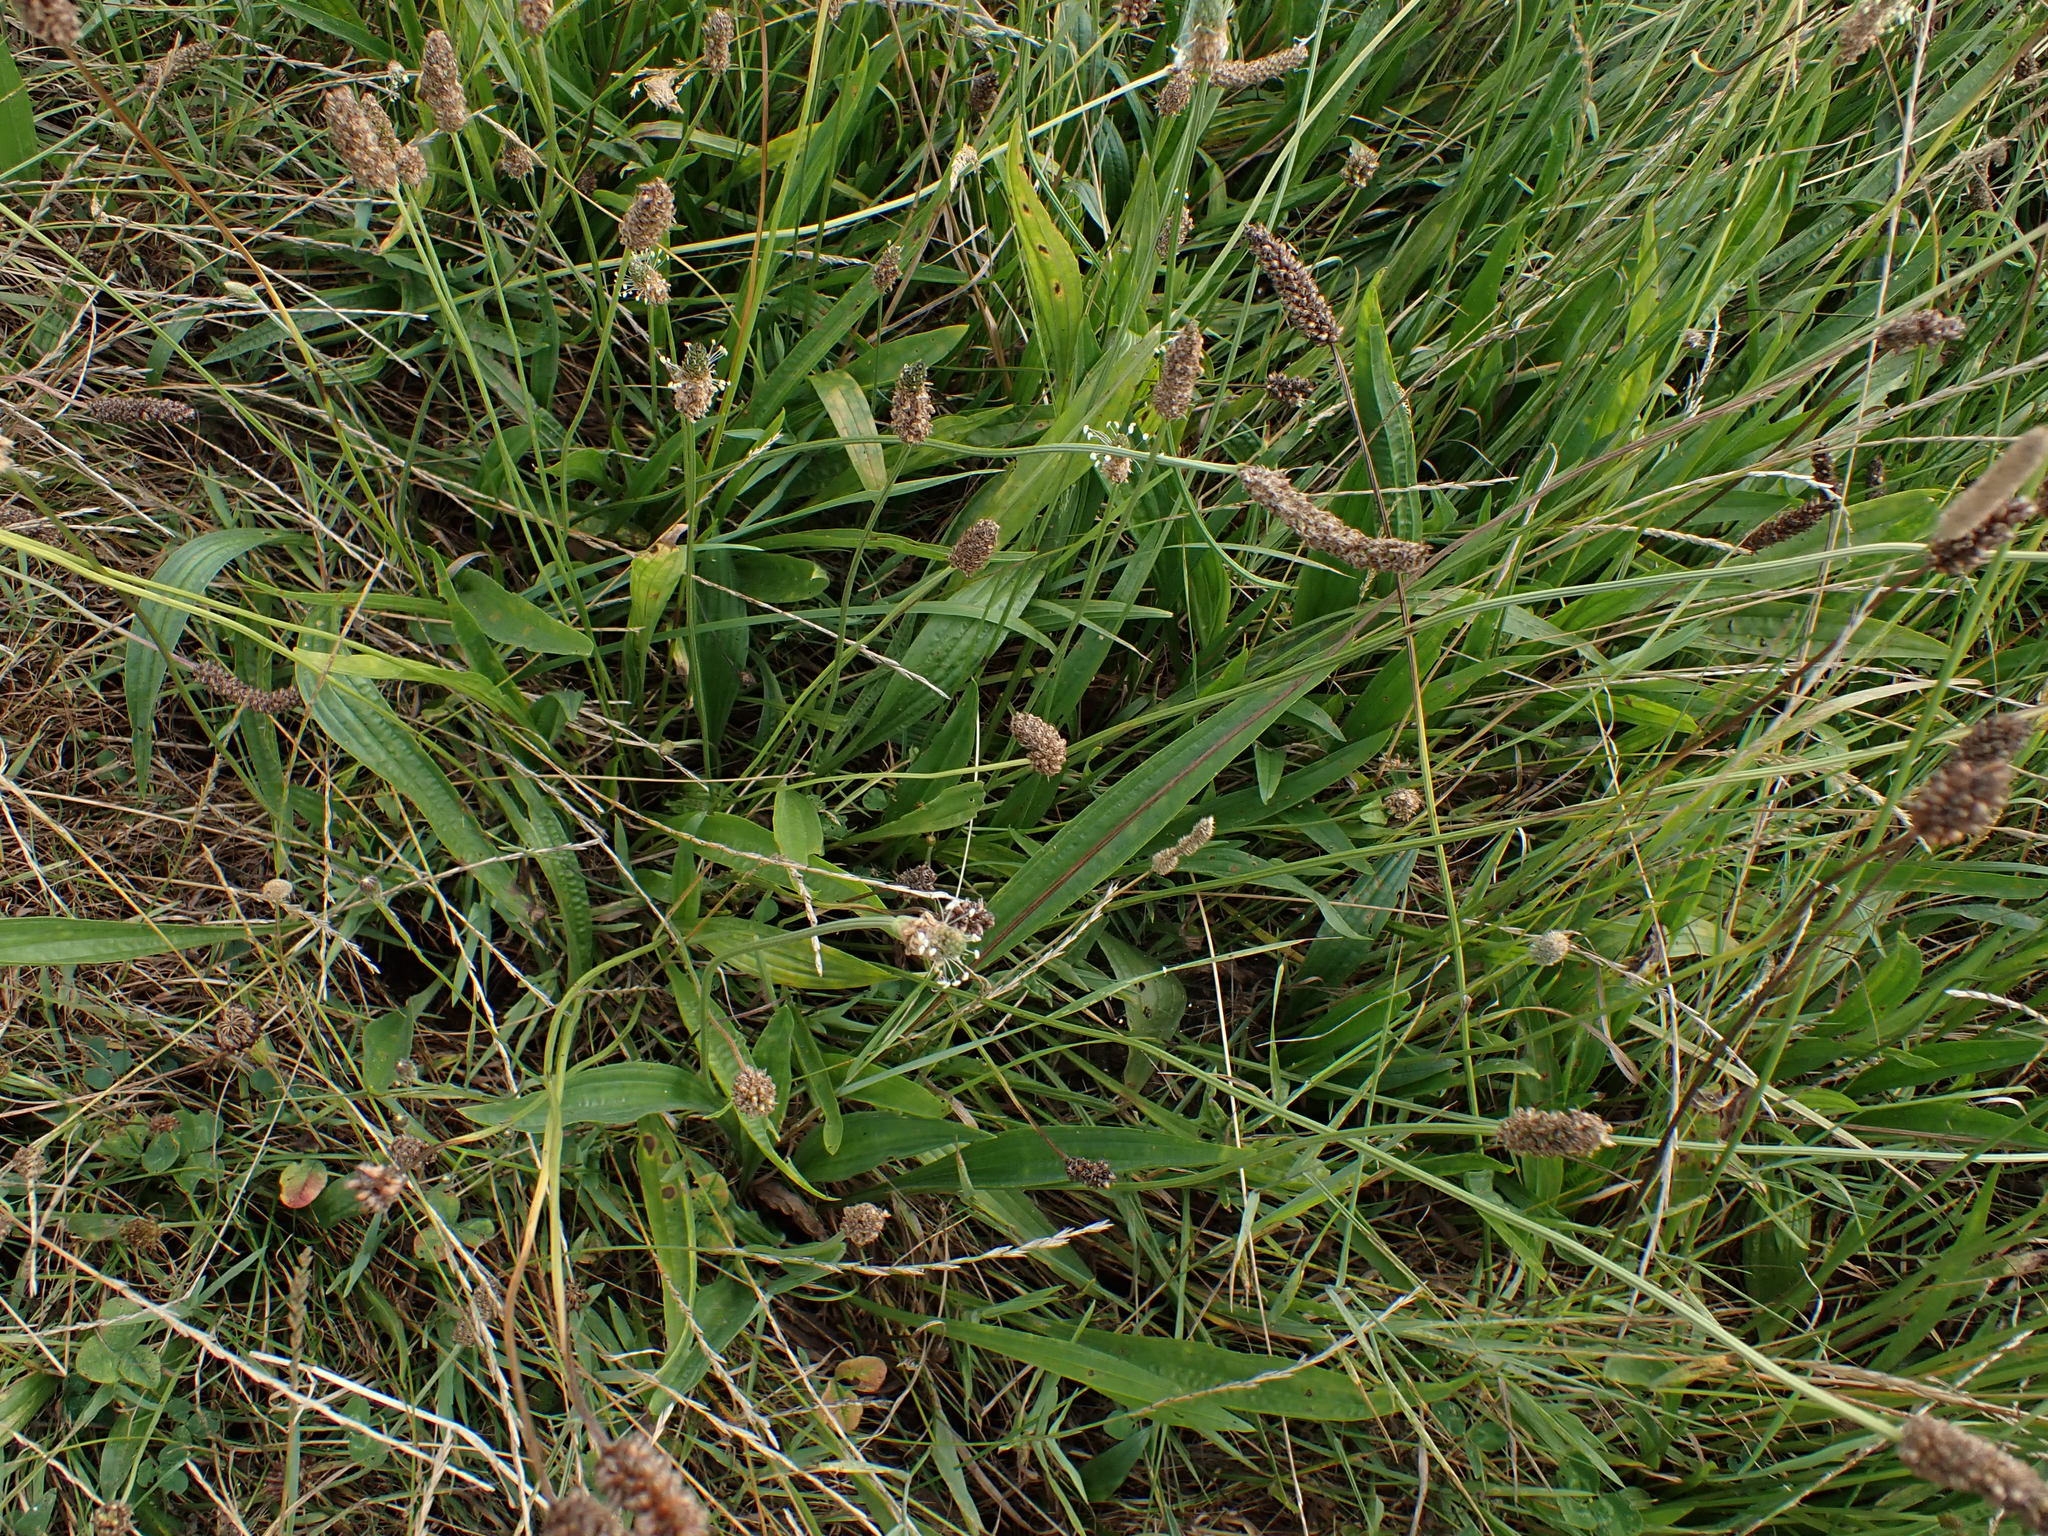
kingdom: Plantae
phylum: Tracheophyta
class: Magnoliopsida
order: Lamiales
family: Plantaginaceae
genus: Plantago
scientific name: Plantago lanceolata
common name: Ribwort plantain
